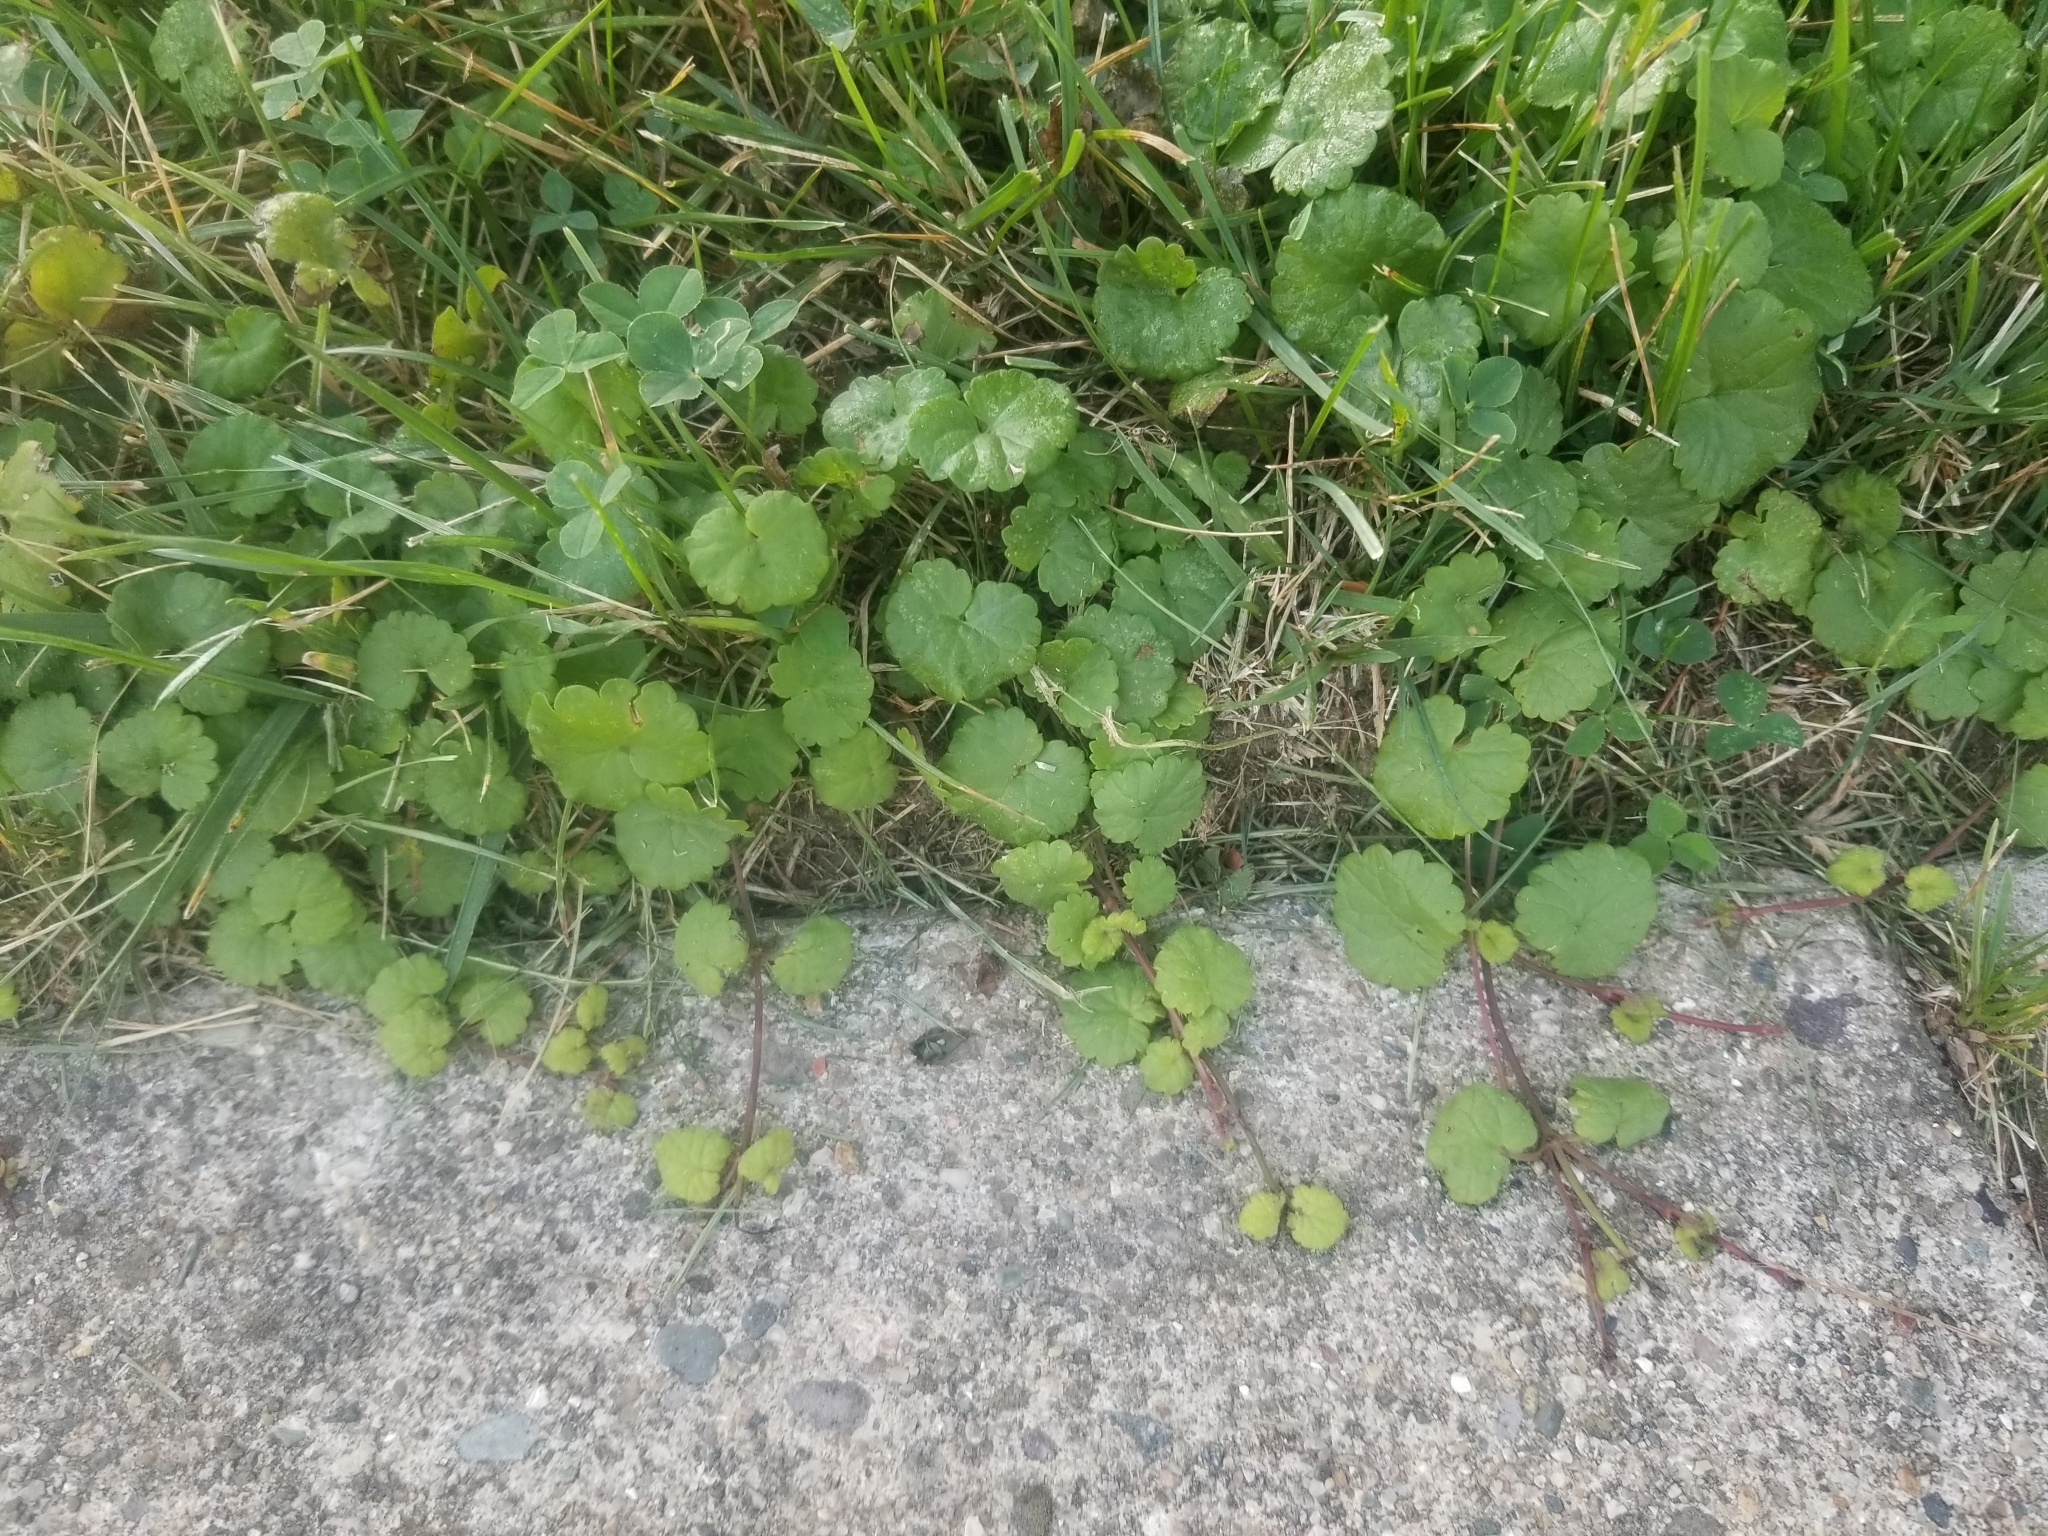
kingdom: Plantae
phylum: Tracheophyta
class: Magnoliopsida
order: Lamiales
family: Lamiaceae
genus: Glechoma
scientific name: Glechoma hederacea
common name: Ground ivy
